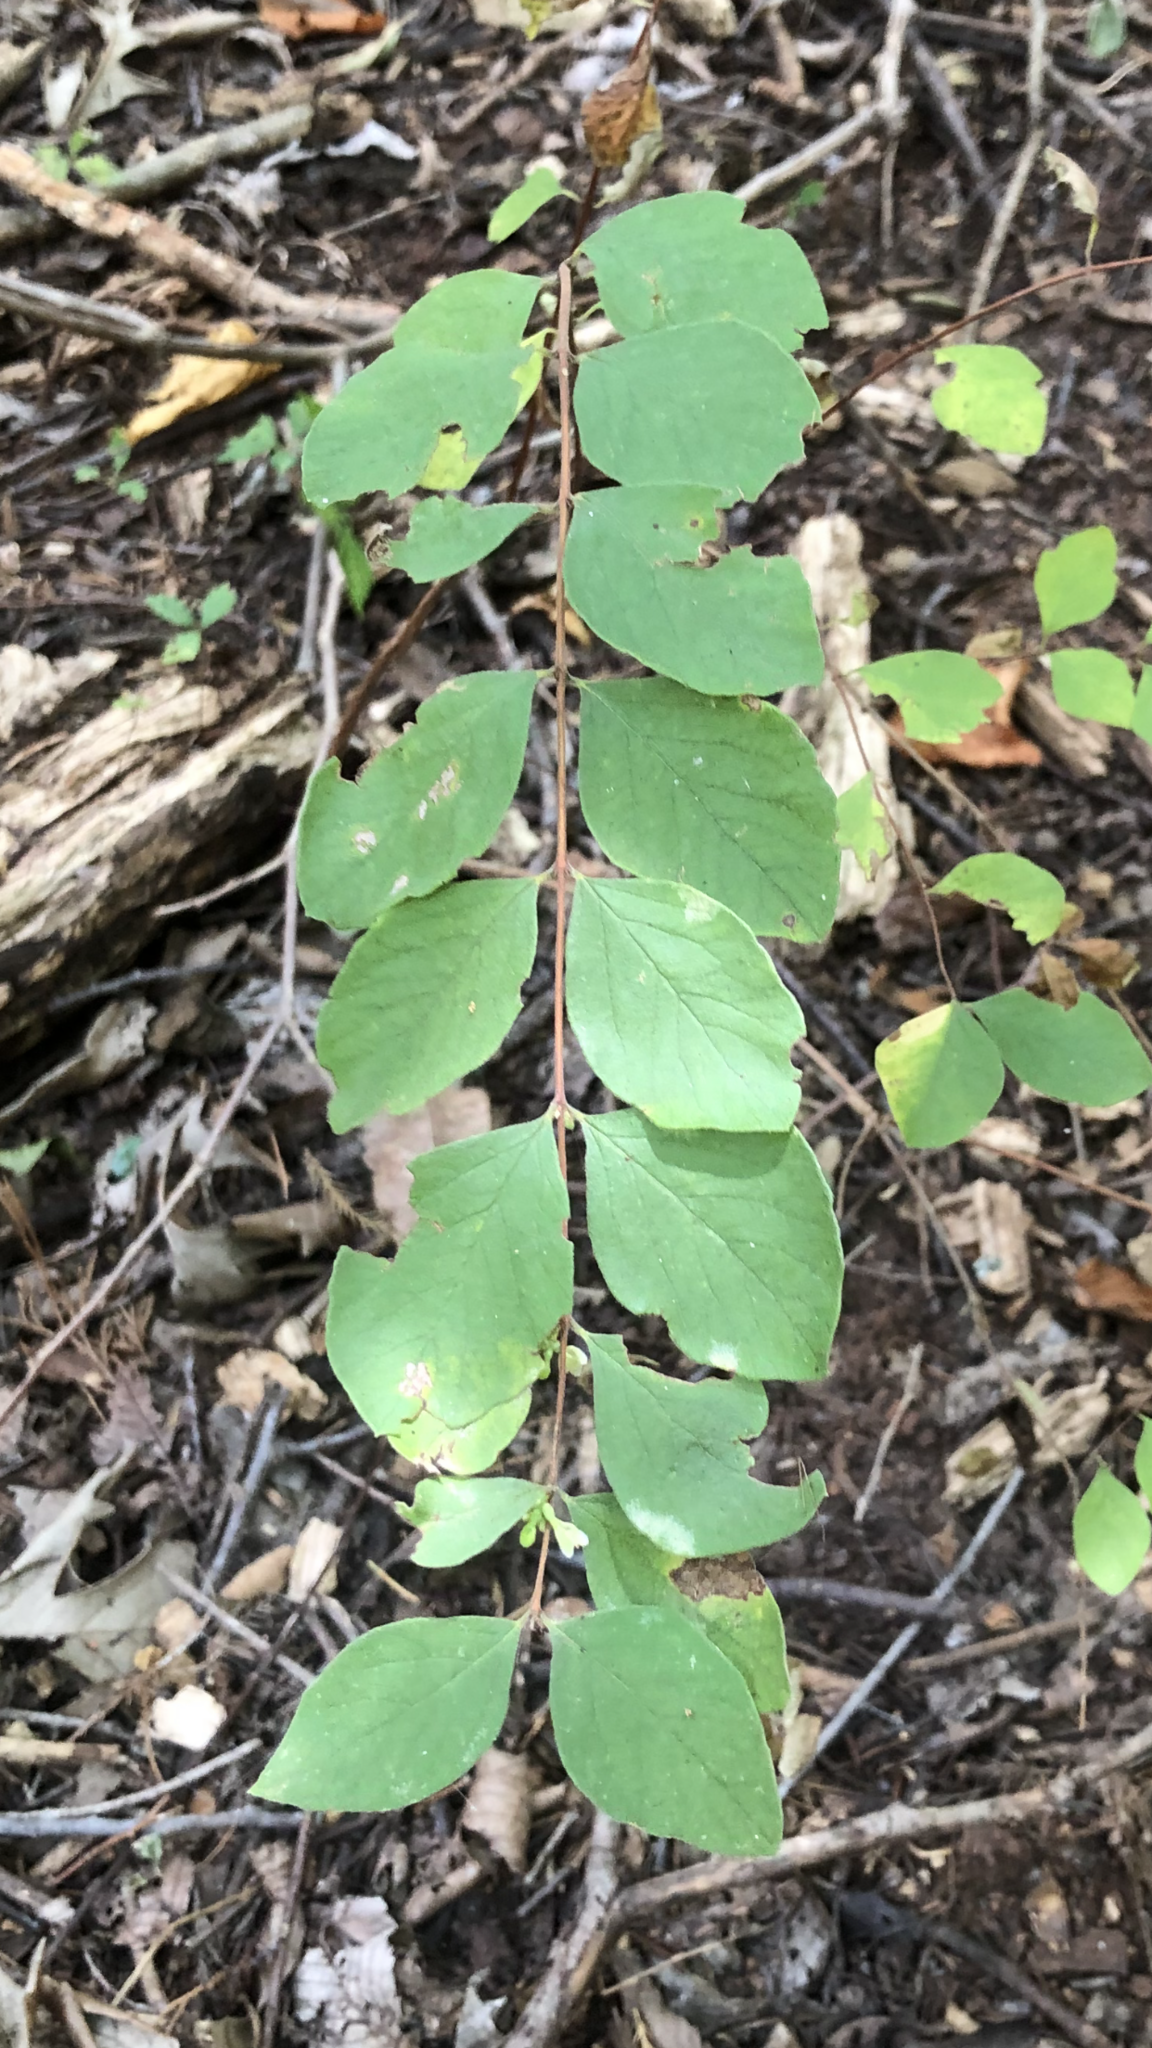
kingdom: Plantae
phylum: Tracheophyta
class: Magnoliopsida
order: Dipsacales
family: Caprifoliaceae
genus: Symphoricarpos
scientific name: Symphoricarpos orbiculatus
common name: Coralberry
